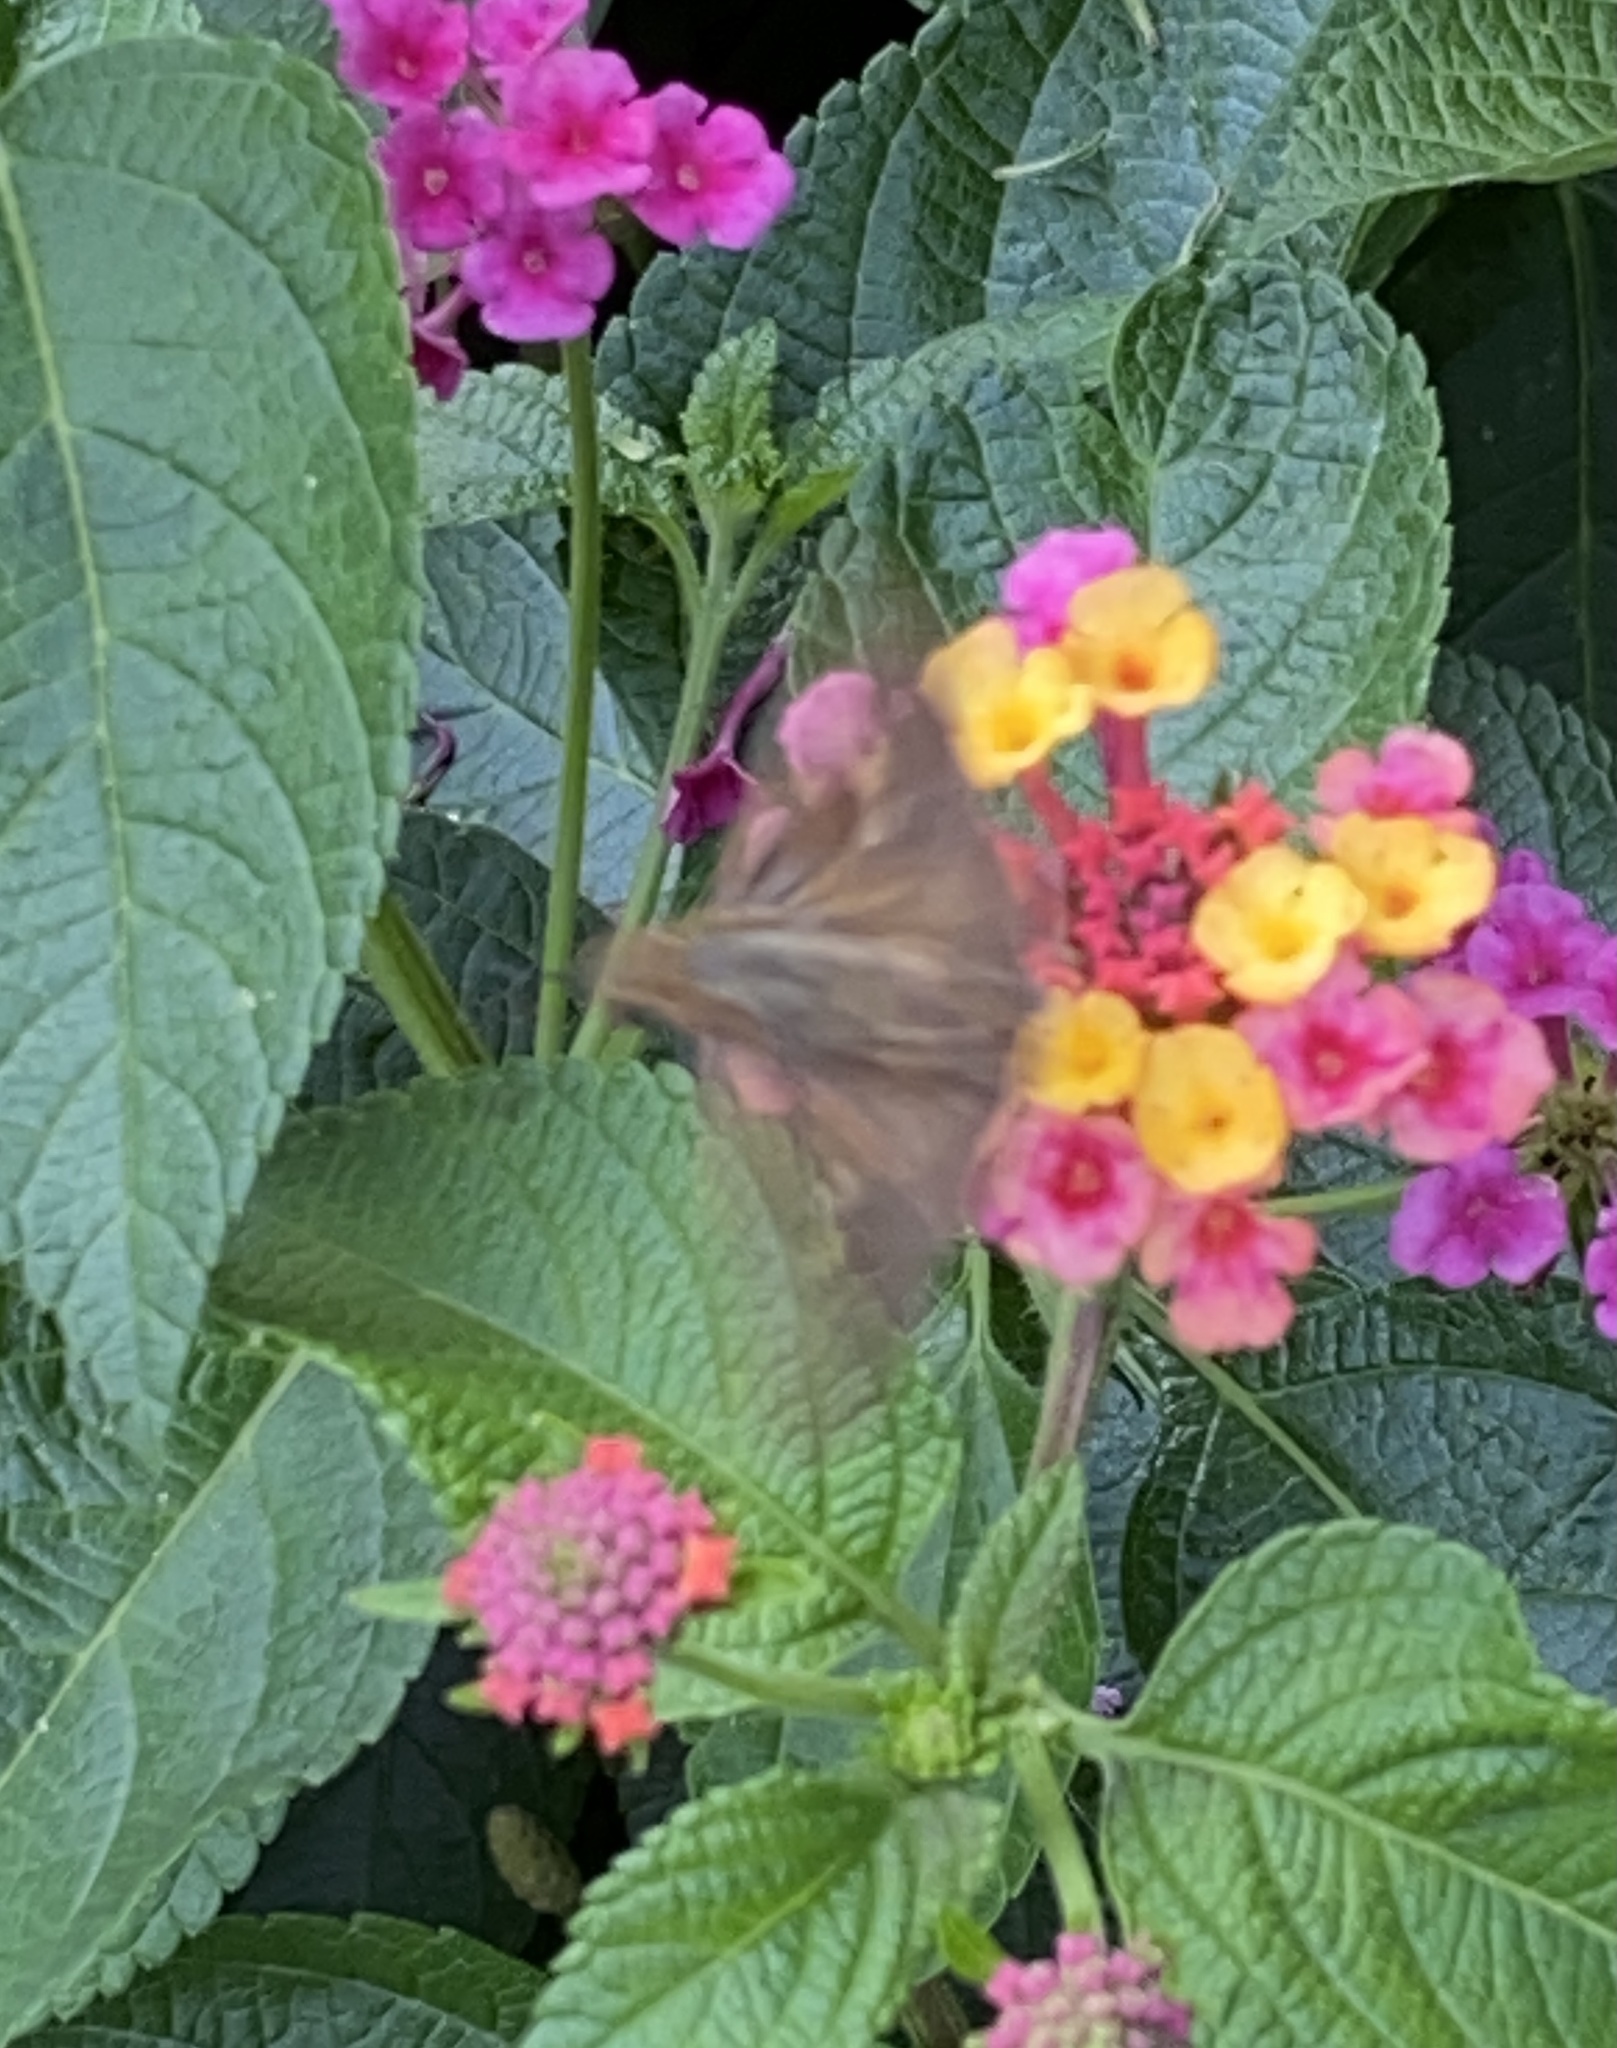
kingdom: Animalia
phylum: Arthropoda
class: Insecta
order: Lepidoptera
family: Hesperiidae
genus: Panoquina
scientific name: Panoquina ocola
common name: Ocola skipper
